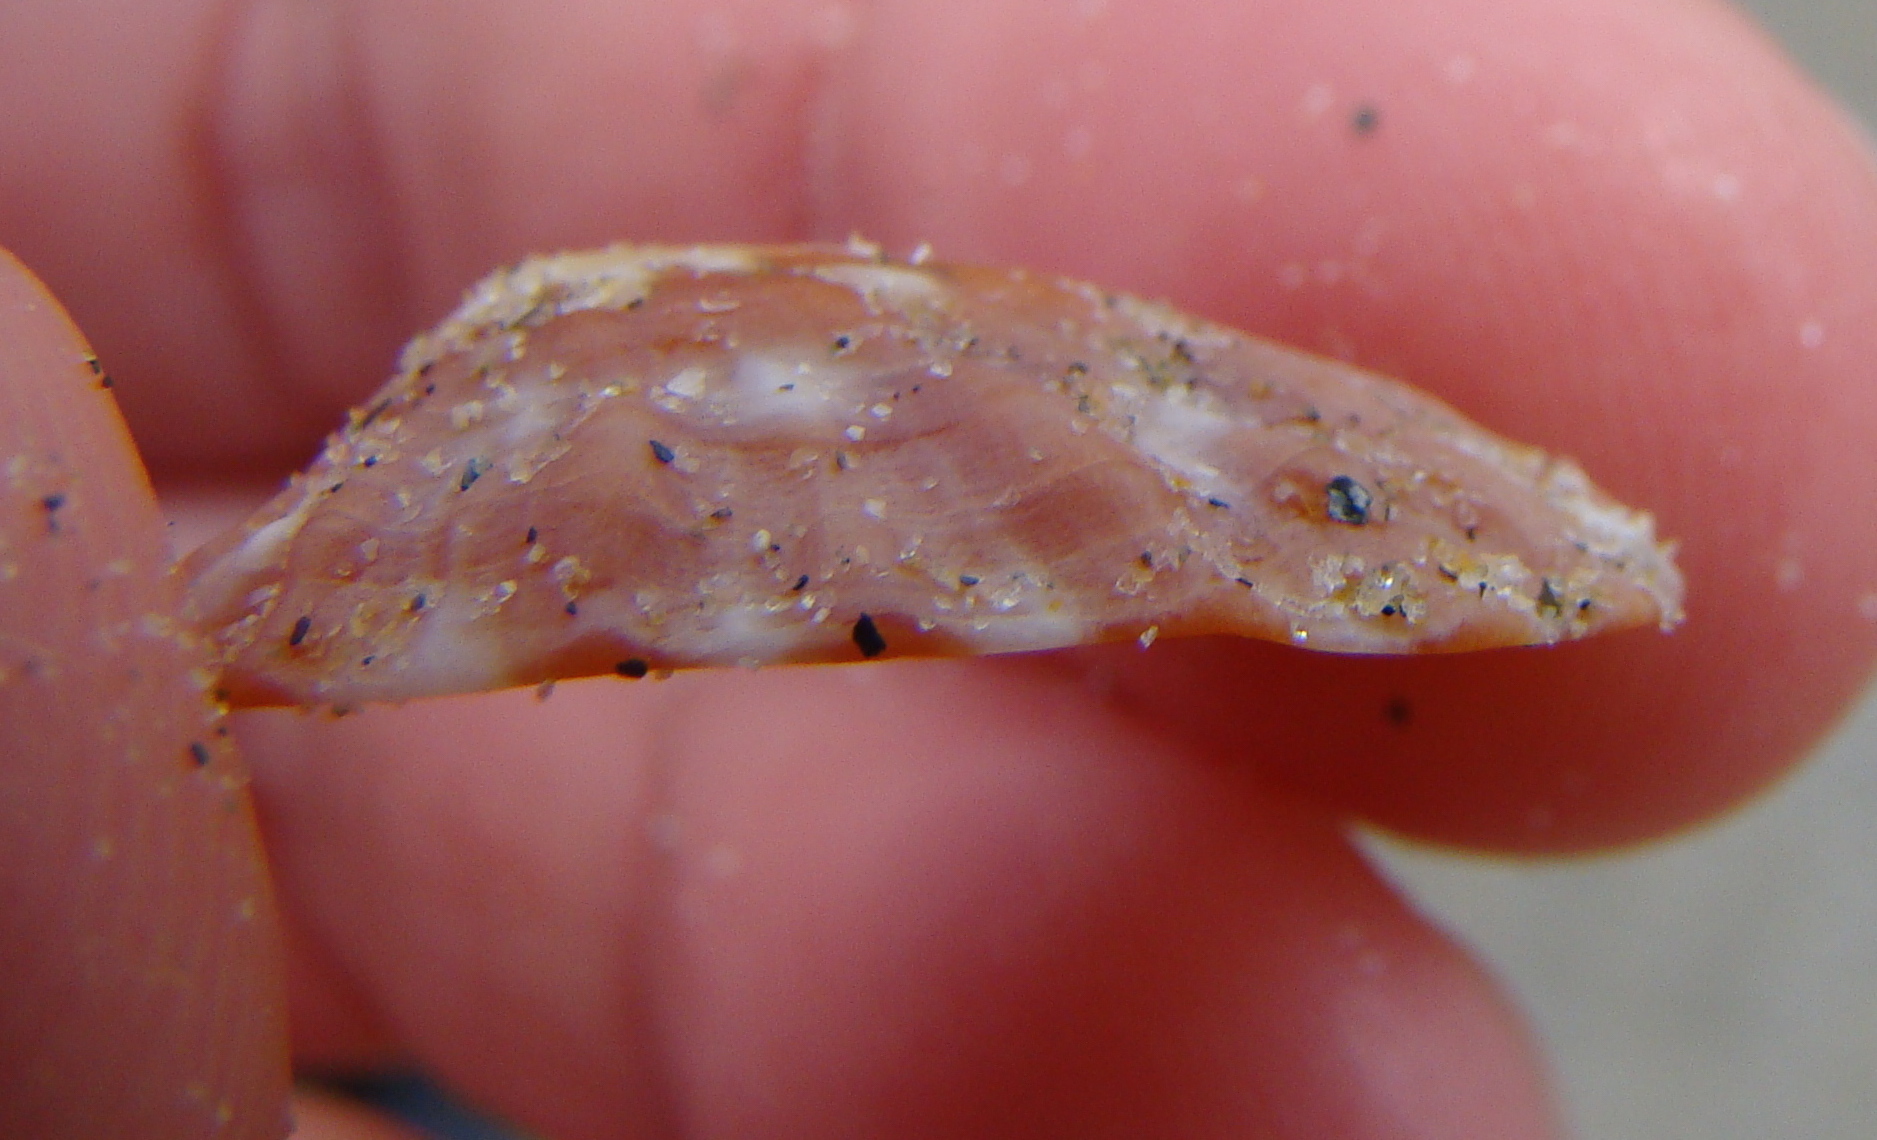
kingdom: Animalia
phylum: Mollusca
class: Gastropoda
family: Nacellidae
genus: Cellana
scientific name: Cellana strigilis
